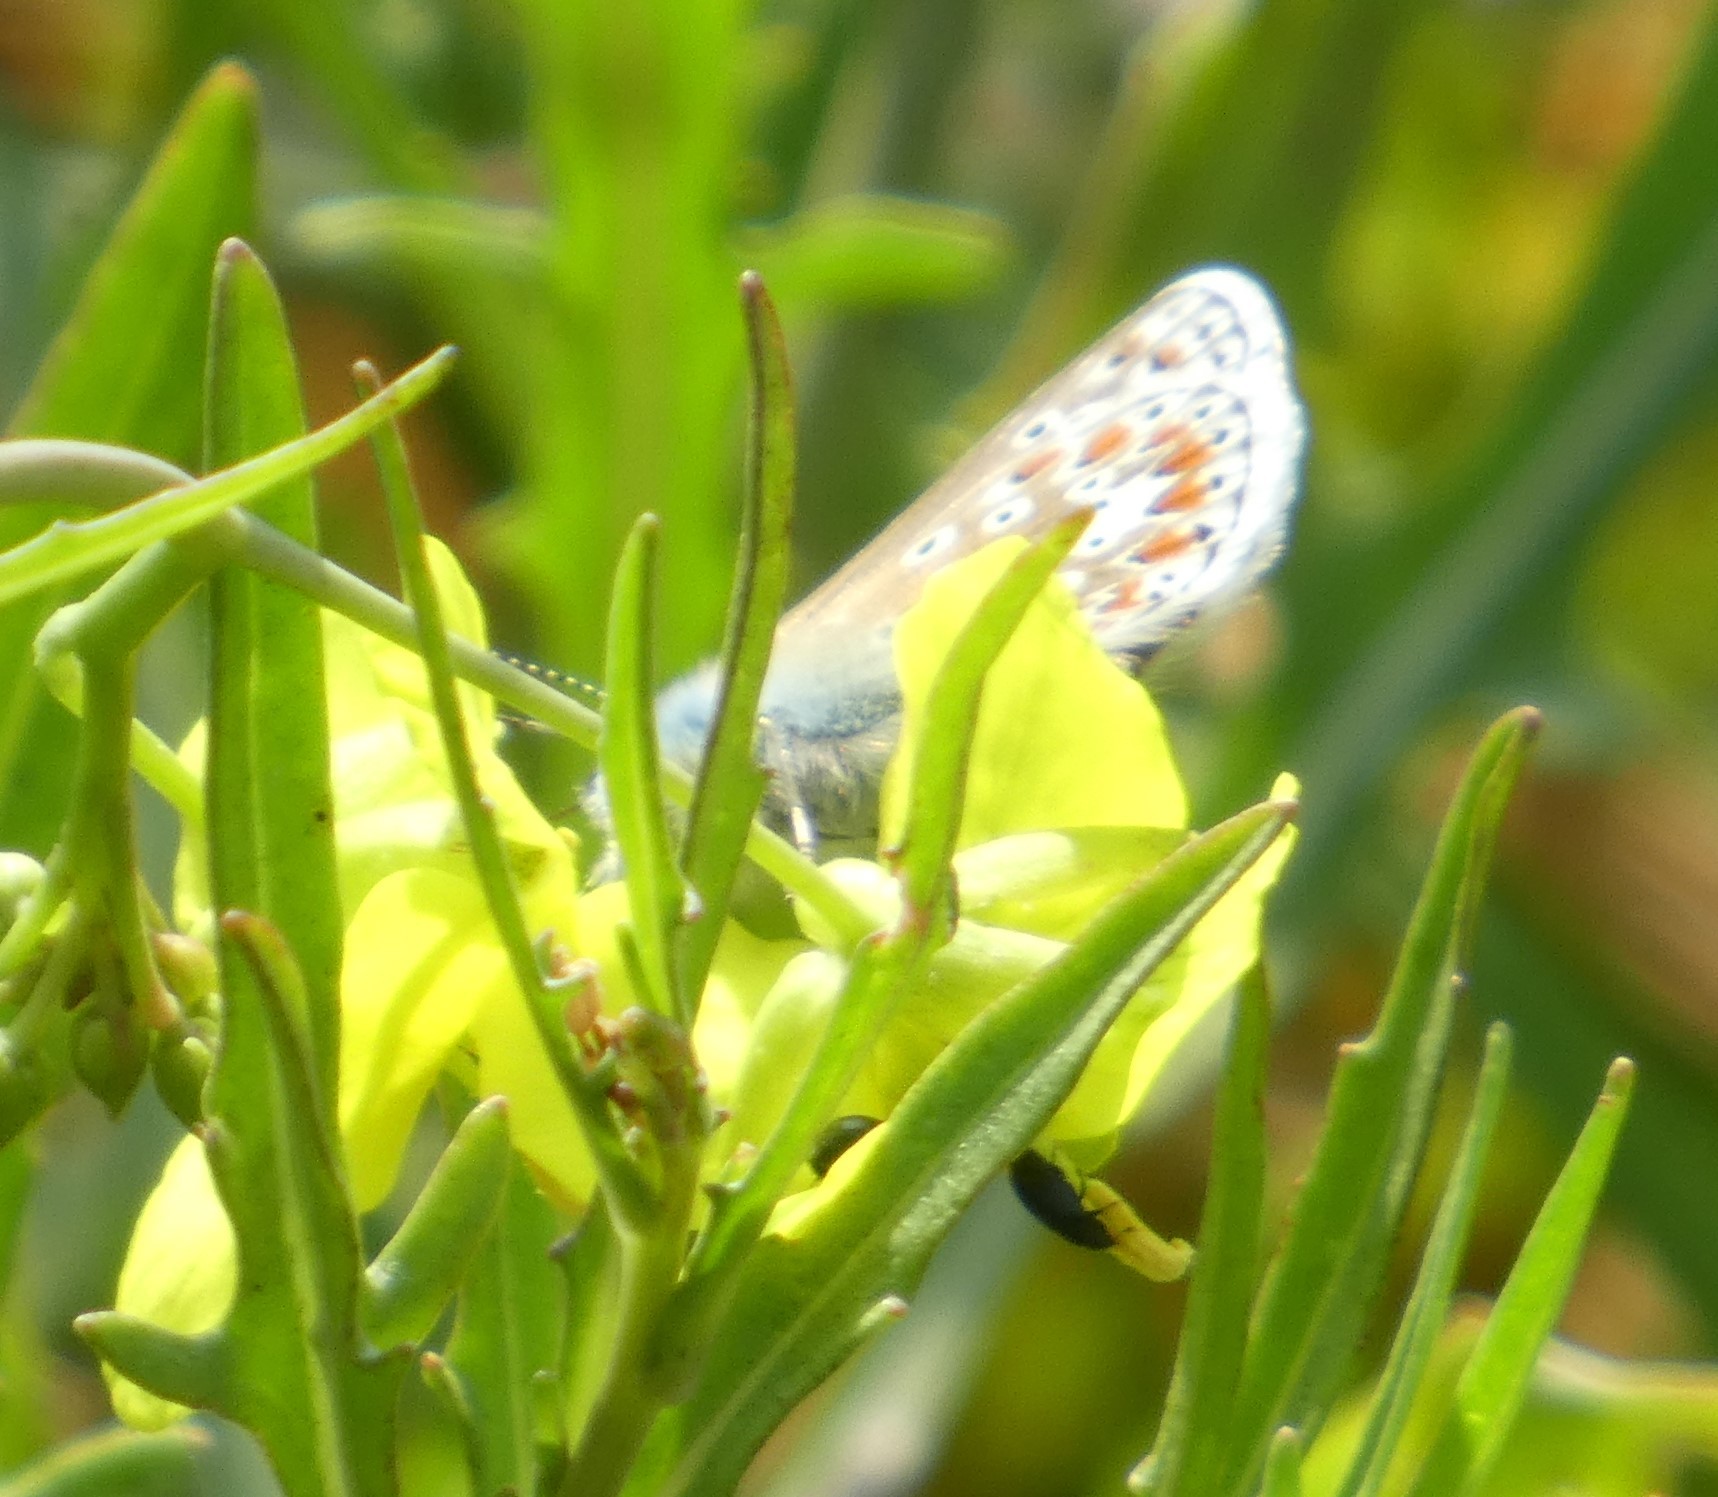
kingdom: Animalia
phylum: Arthropoda
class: Insecta
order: Lepidoptera
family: Lycaenidae
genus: Polyommatus
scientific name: Polyommatus icarus
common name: Common blue
